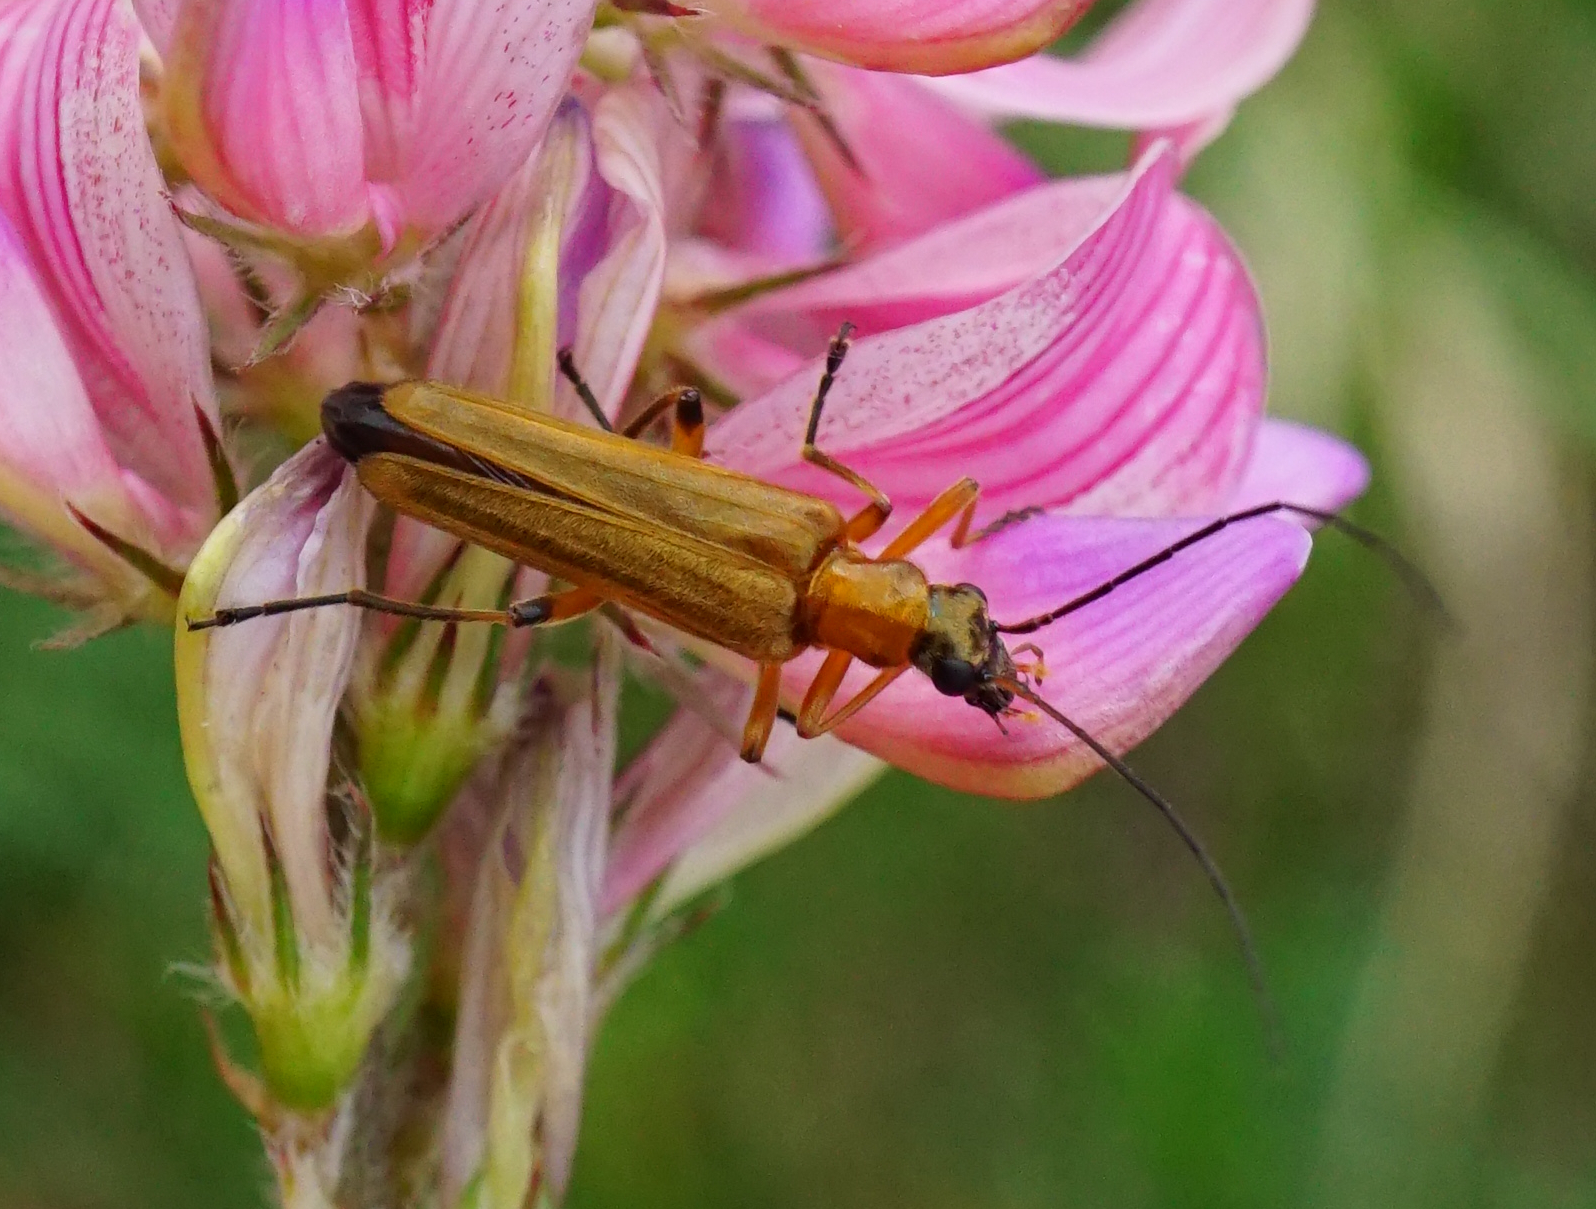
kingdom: Animalia
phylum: Arthropoda
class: Insecta
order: Coleoptera
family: Oedemeridae
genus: Oedemera
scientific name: Oedemera podagrariae
